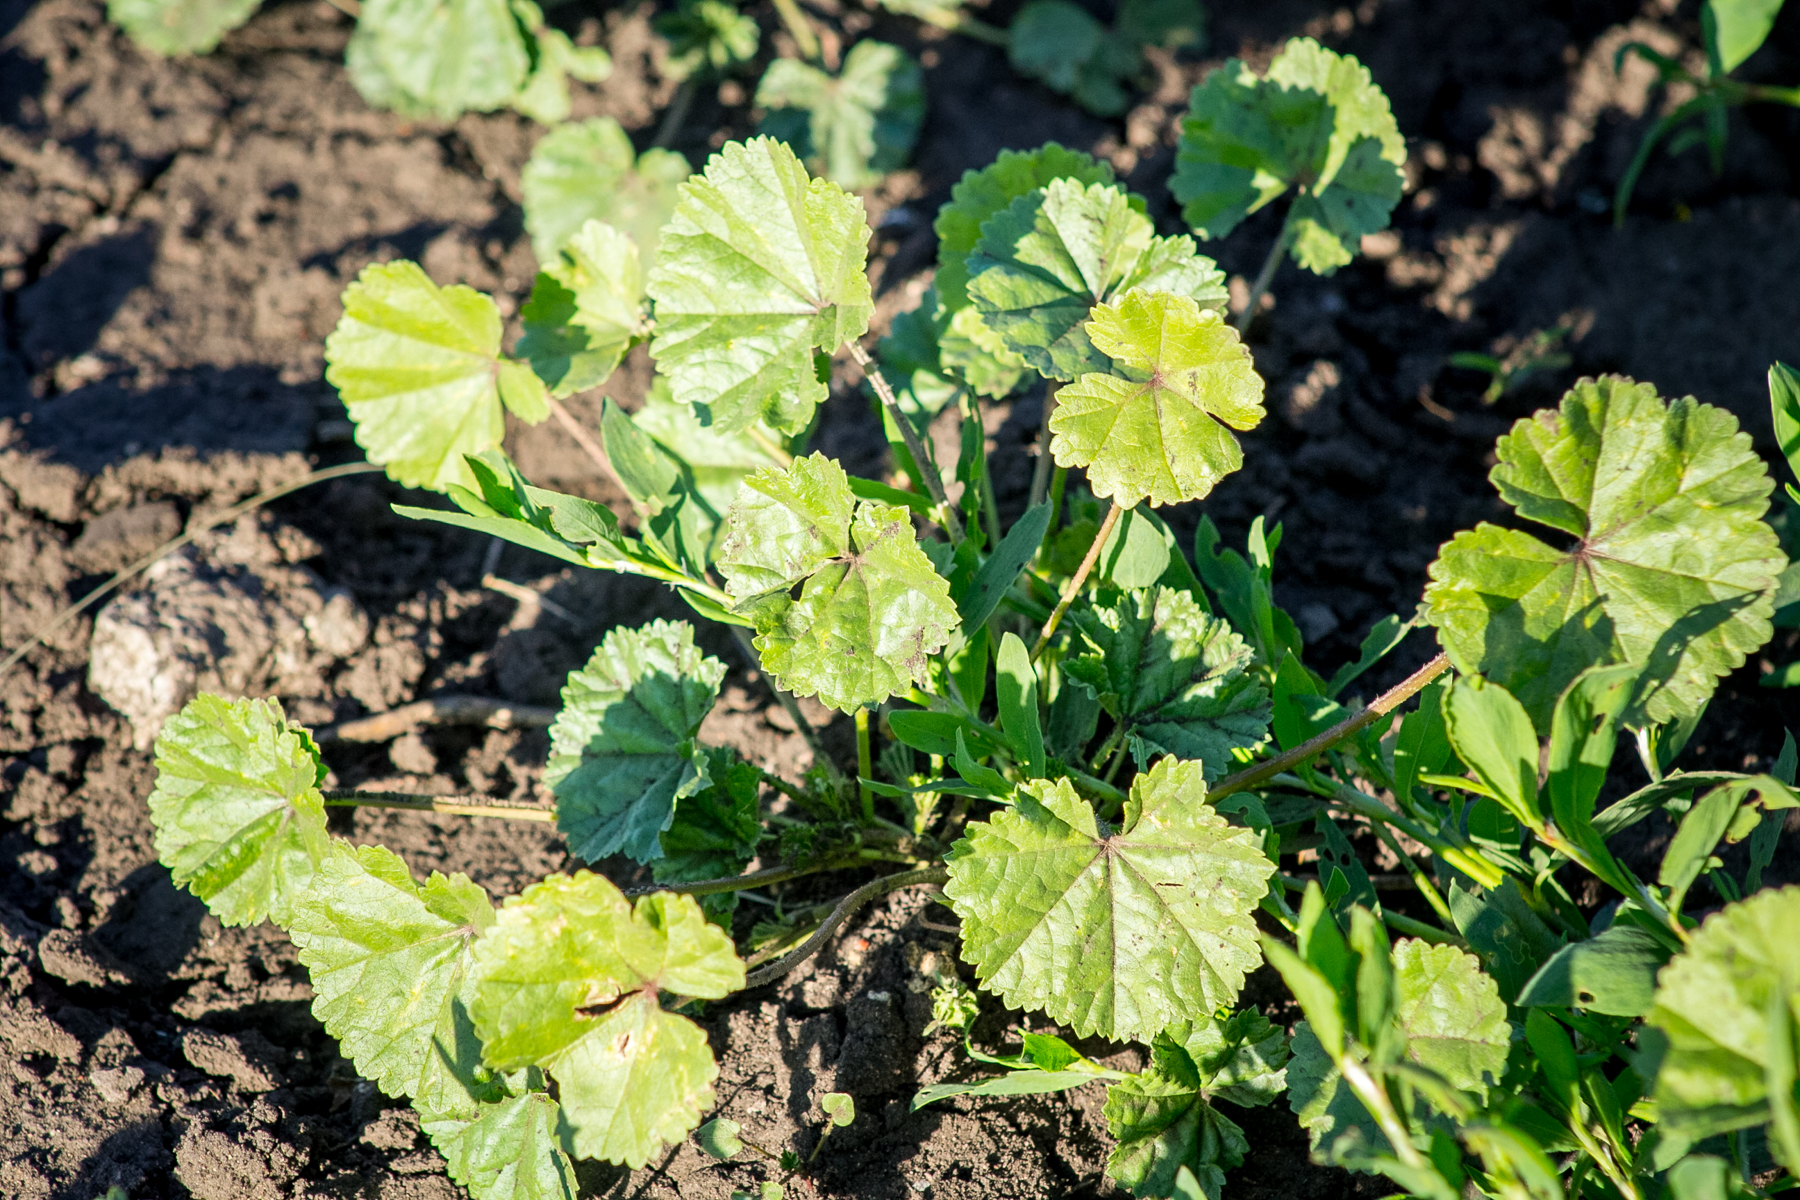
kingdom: Plantae
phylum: Tracheophyta
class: Magnoliopsida
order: Malvales
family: Malvaceae
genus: Malva
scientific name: Malva pusilla
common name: Small mallow
